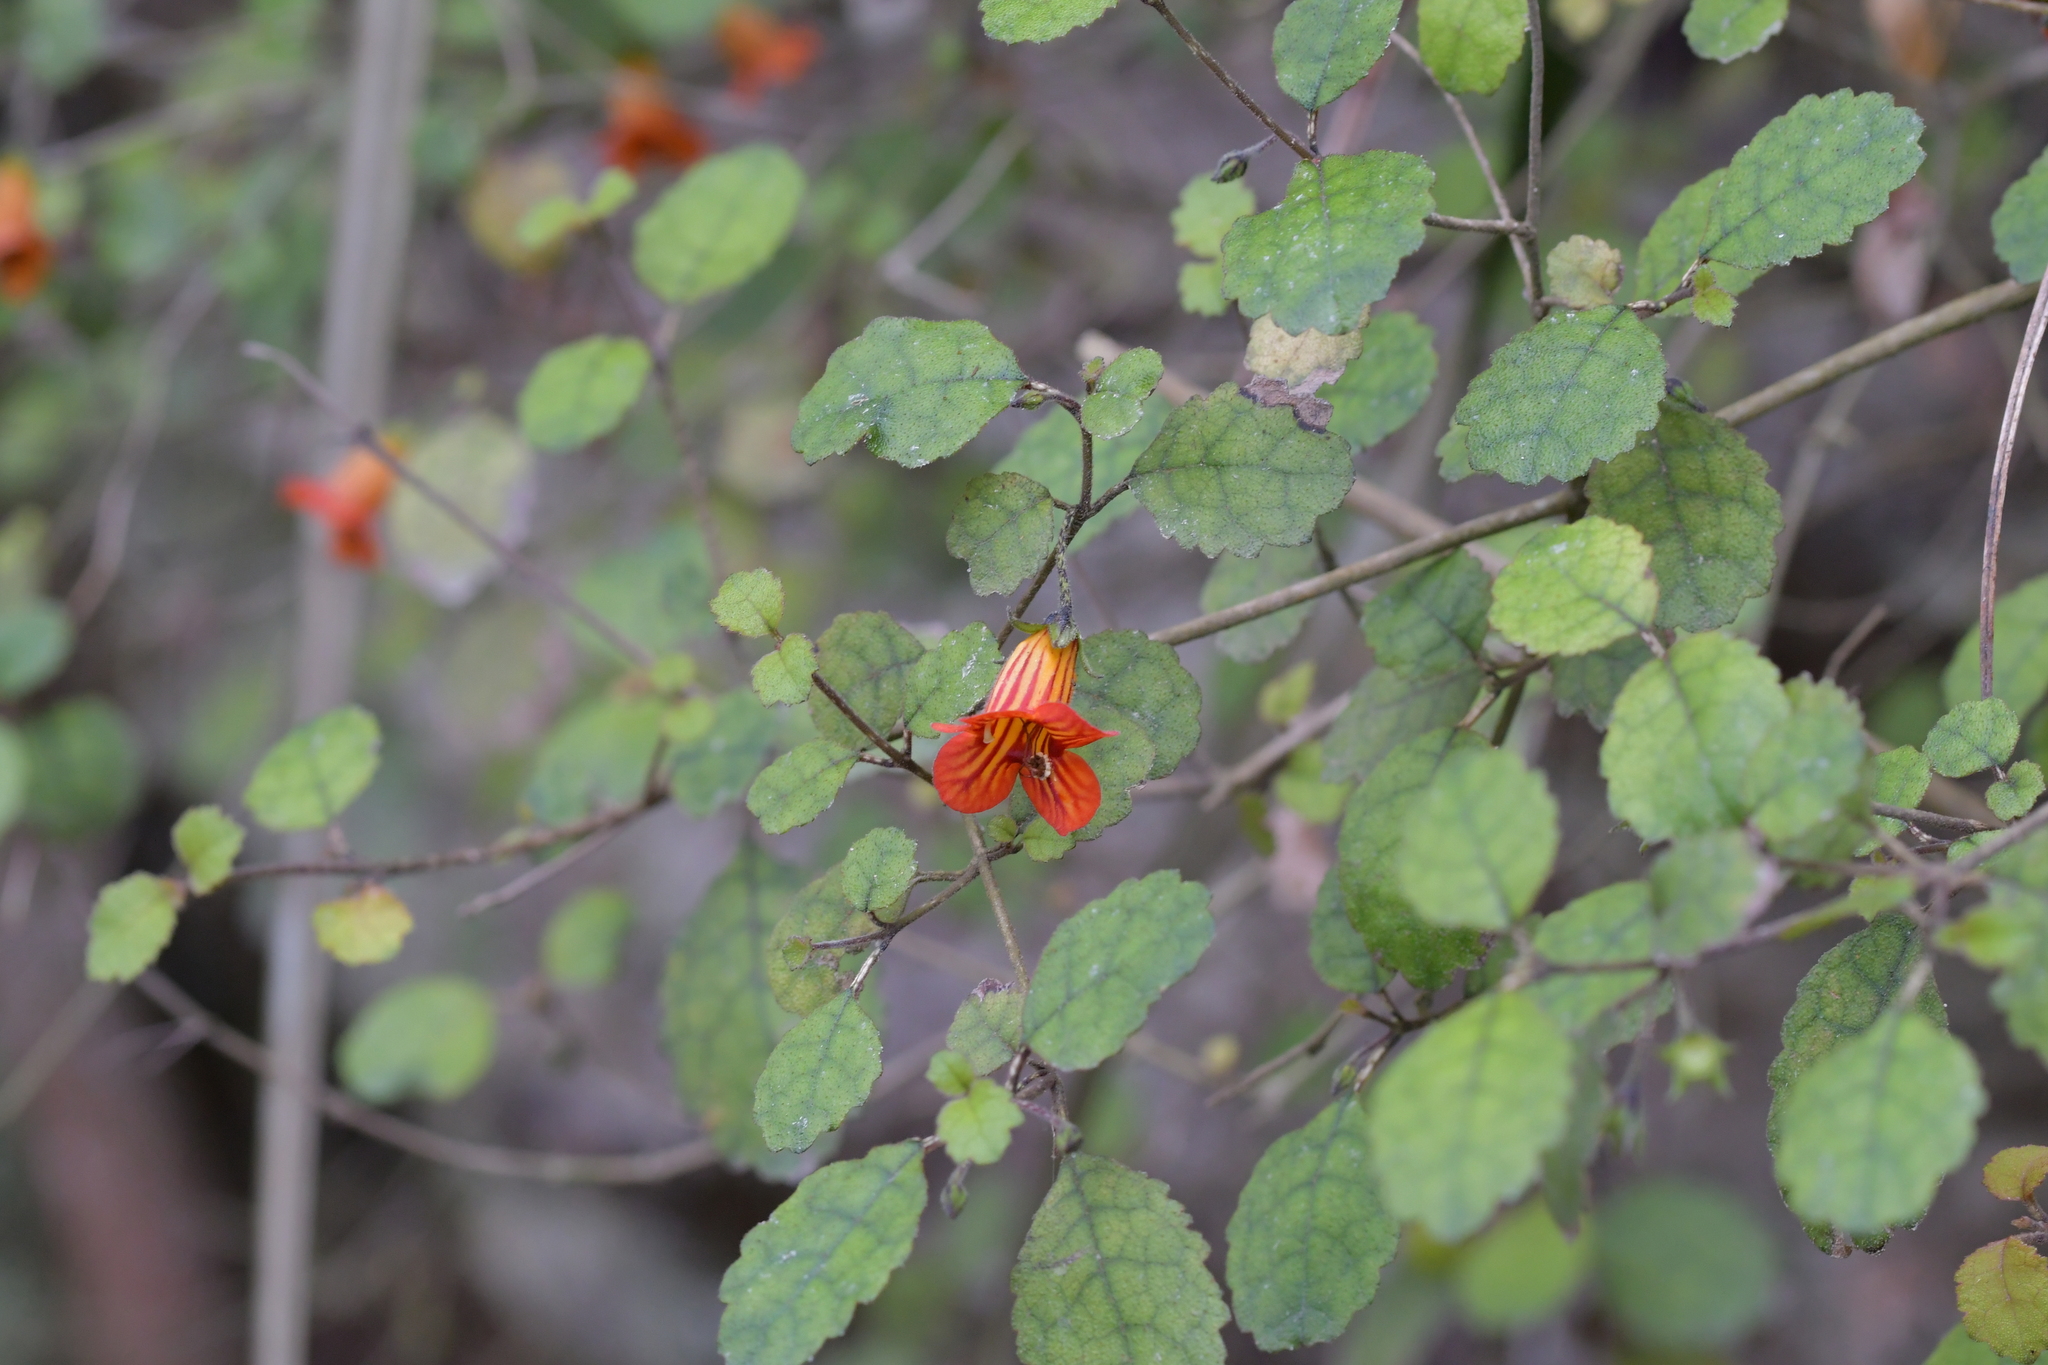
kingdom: Plantae
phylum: Tracheophyta
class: Magnoliopsida
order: Lamiales
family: Gesneriaceae
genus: Rhabdothamnus
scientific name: Rhabdothamnus solandri
